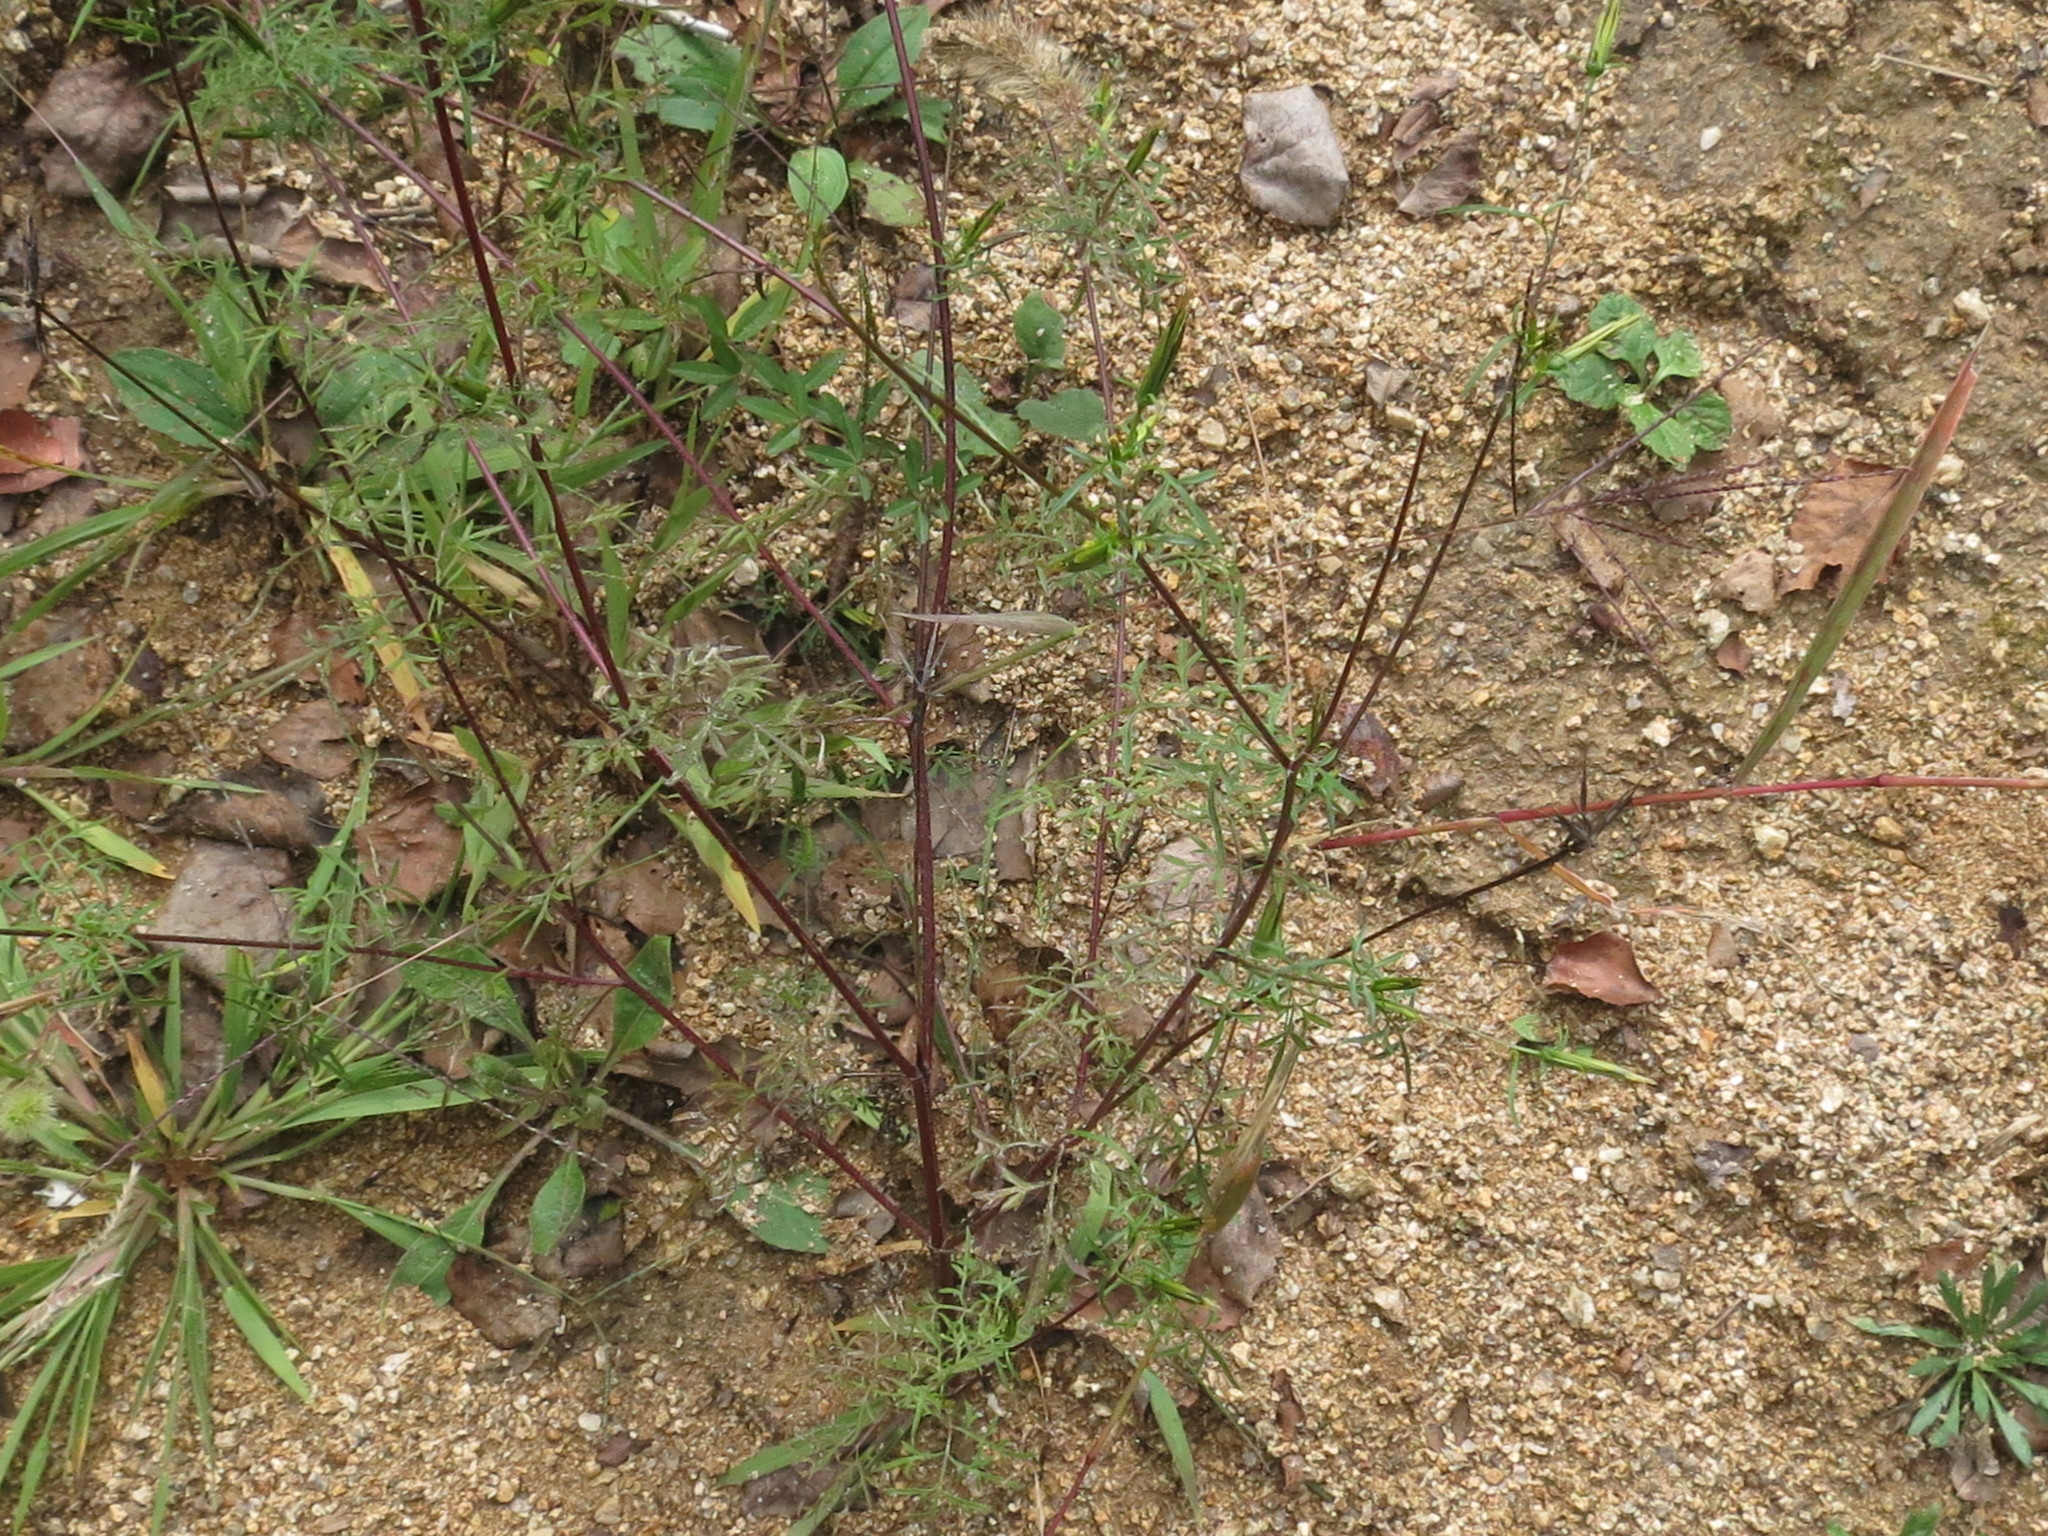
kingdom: Plantae
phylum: Tracheophyta
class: Magnoliopsida
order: Asterales
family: Asteraceae
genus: Bidens
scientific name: Bidens parviflora
